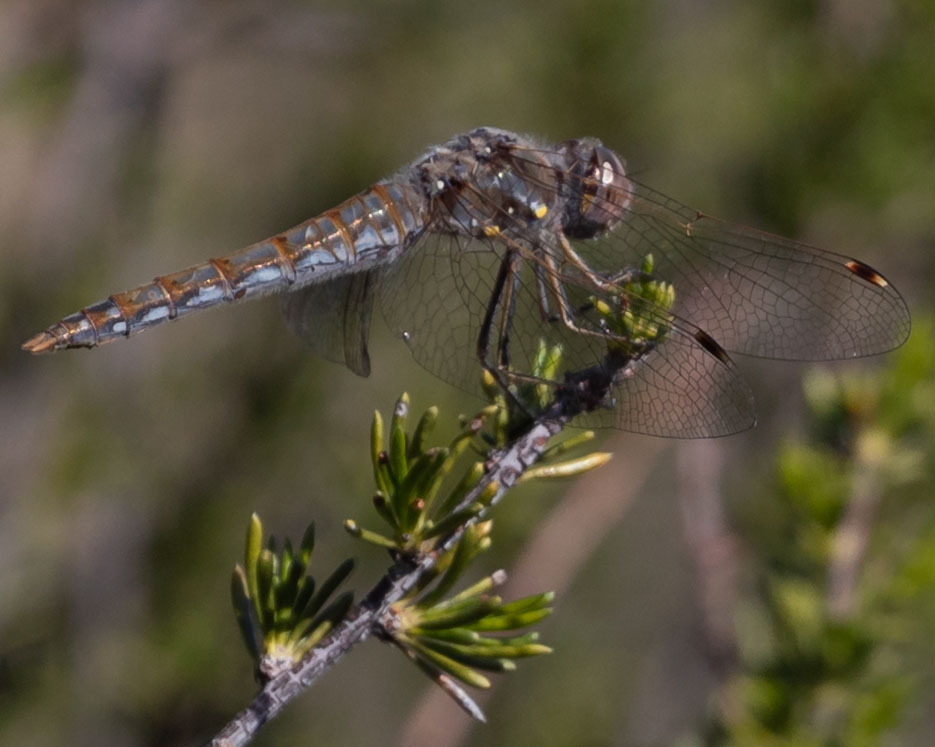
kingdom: Animalia
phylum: Arthropoda
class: Insecta
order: Odonata
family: Libellulidae
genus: Sympetrum
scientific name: Sympetrum corruptum
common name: Variegated meadowhawk
